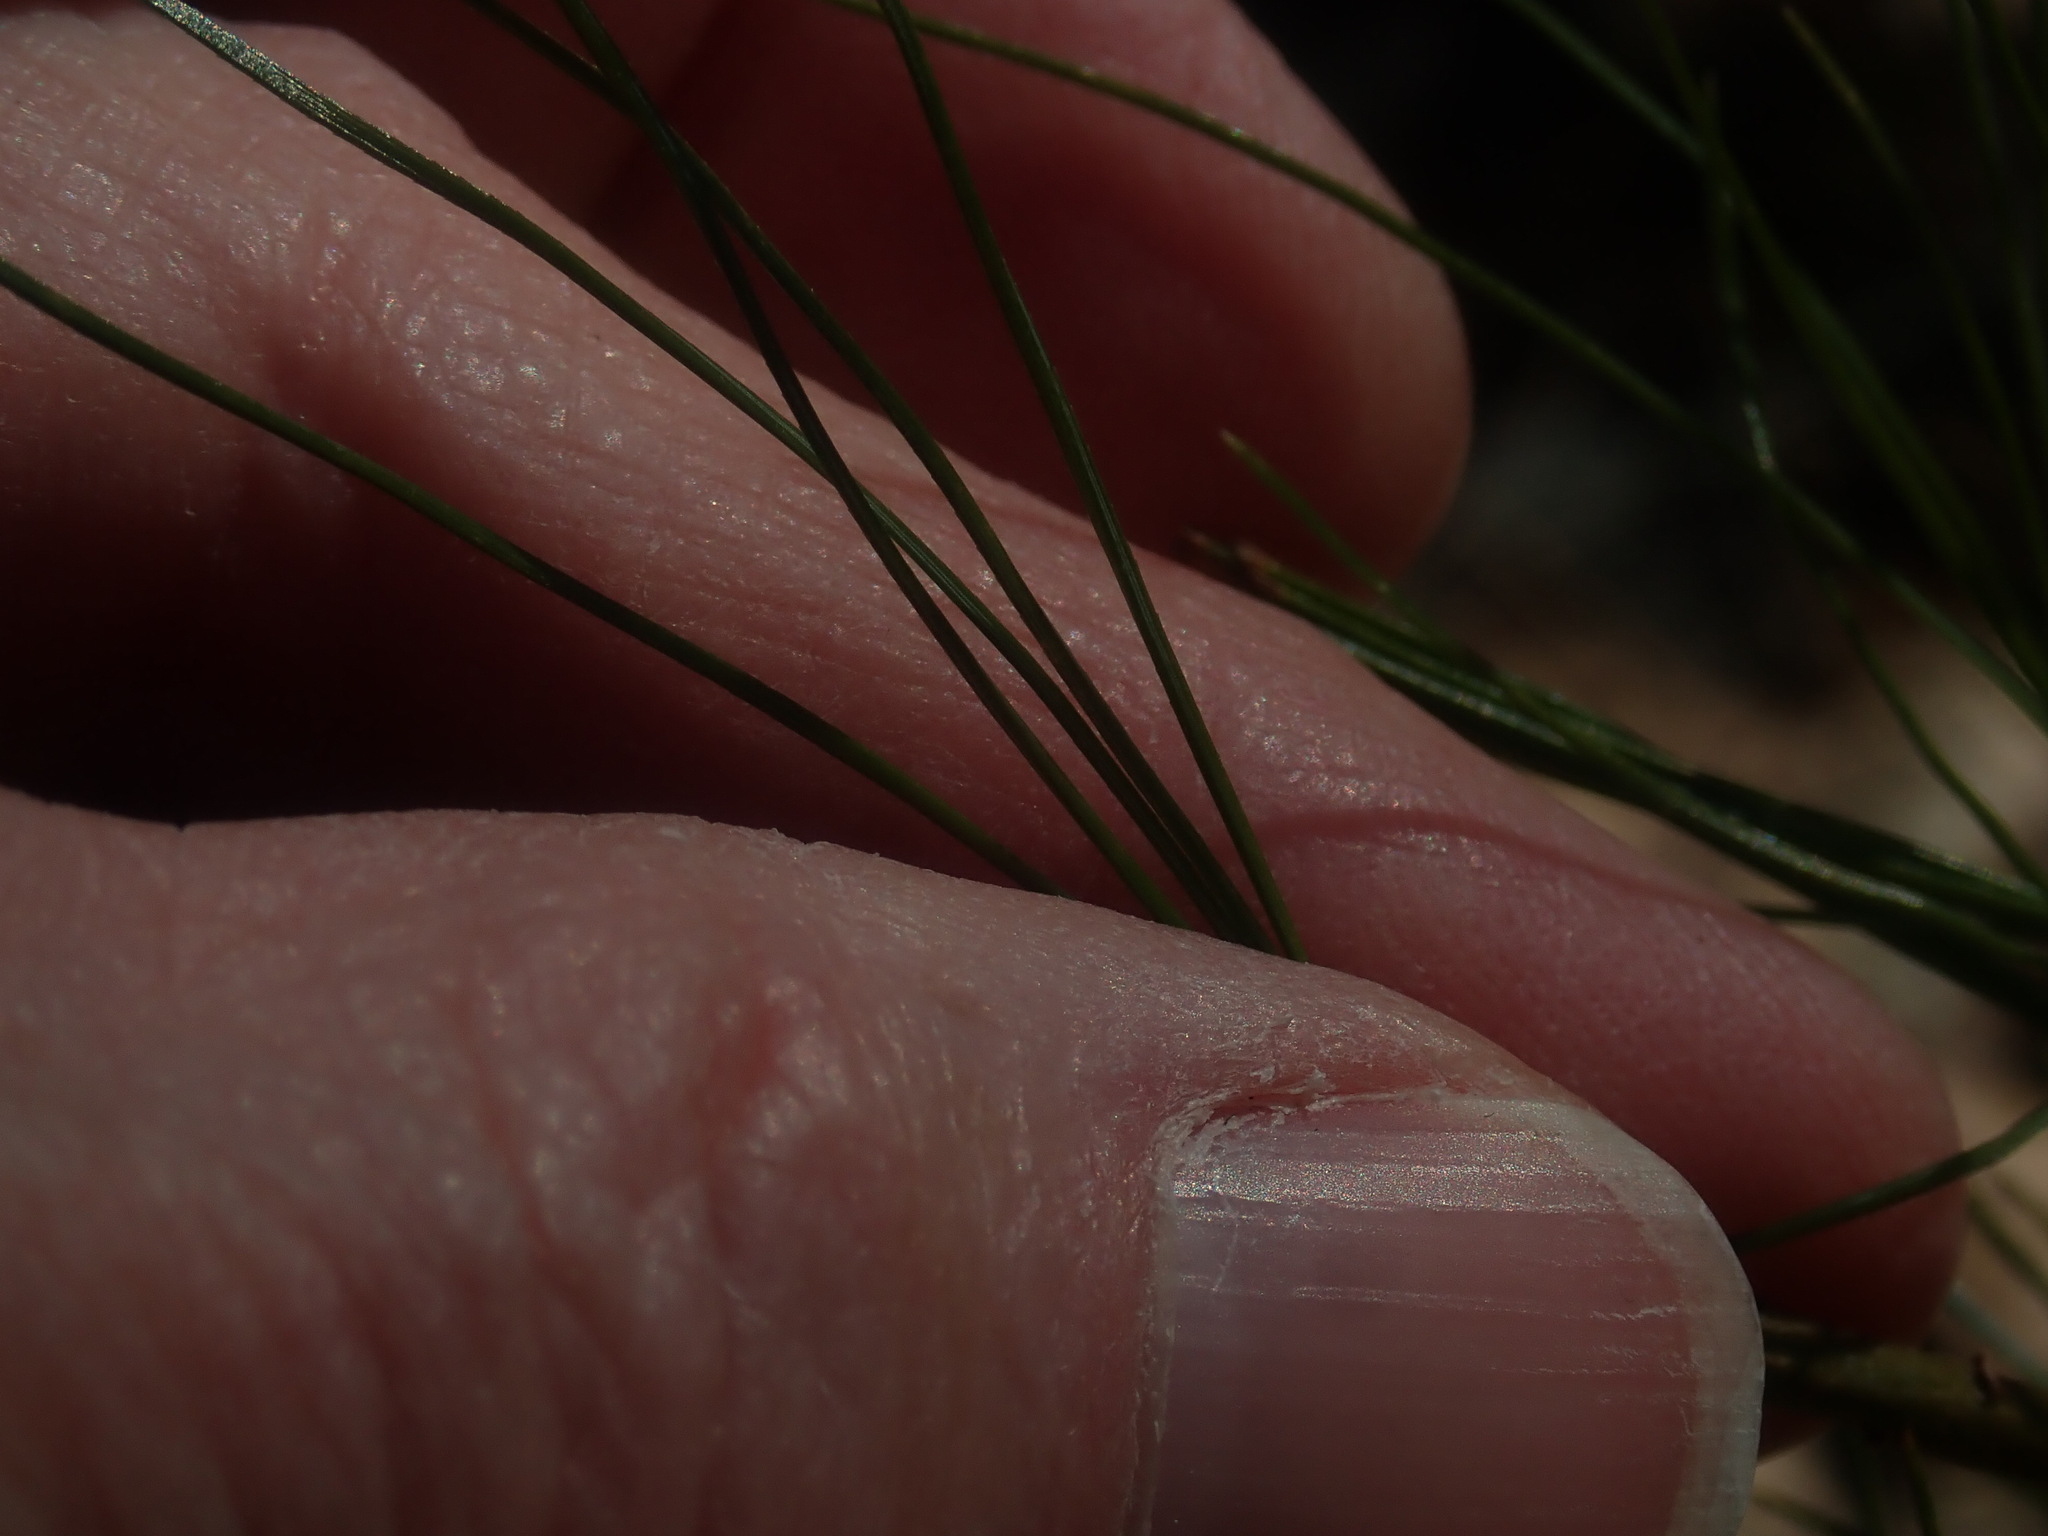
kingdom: Plantae
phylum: Tracheophyta
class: Pinopsida
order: Pinales
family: Pinaceae
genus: Pinus
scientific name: Pinus strobus
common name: Weymouth pine
